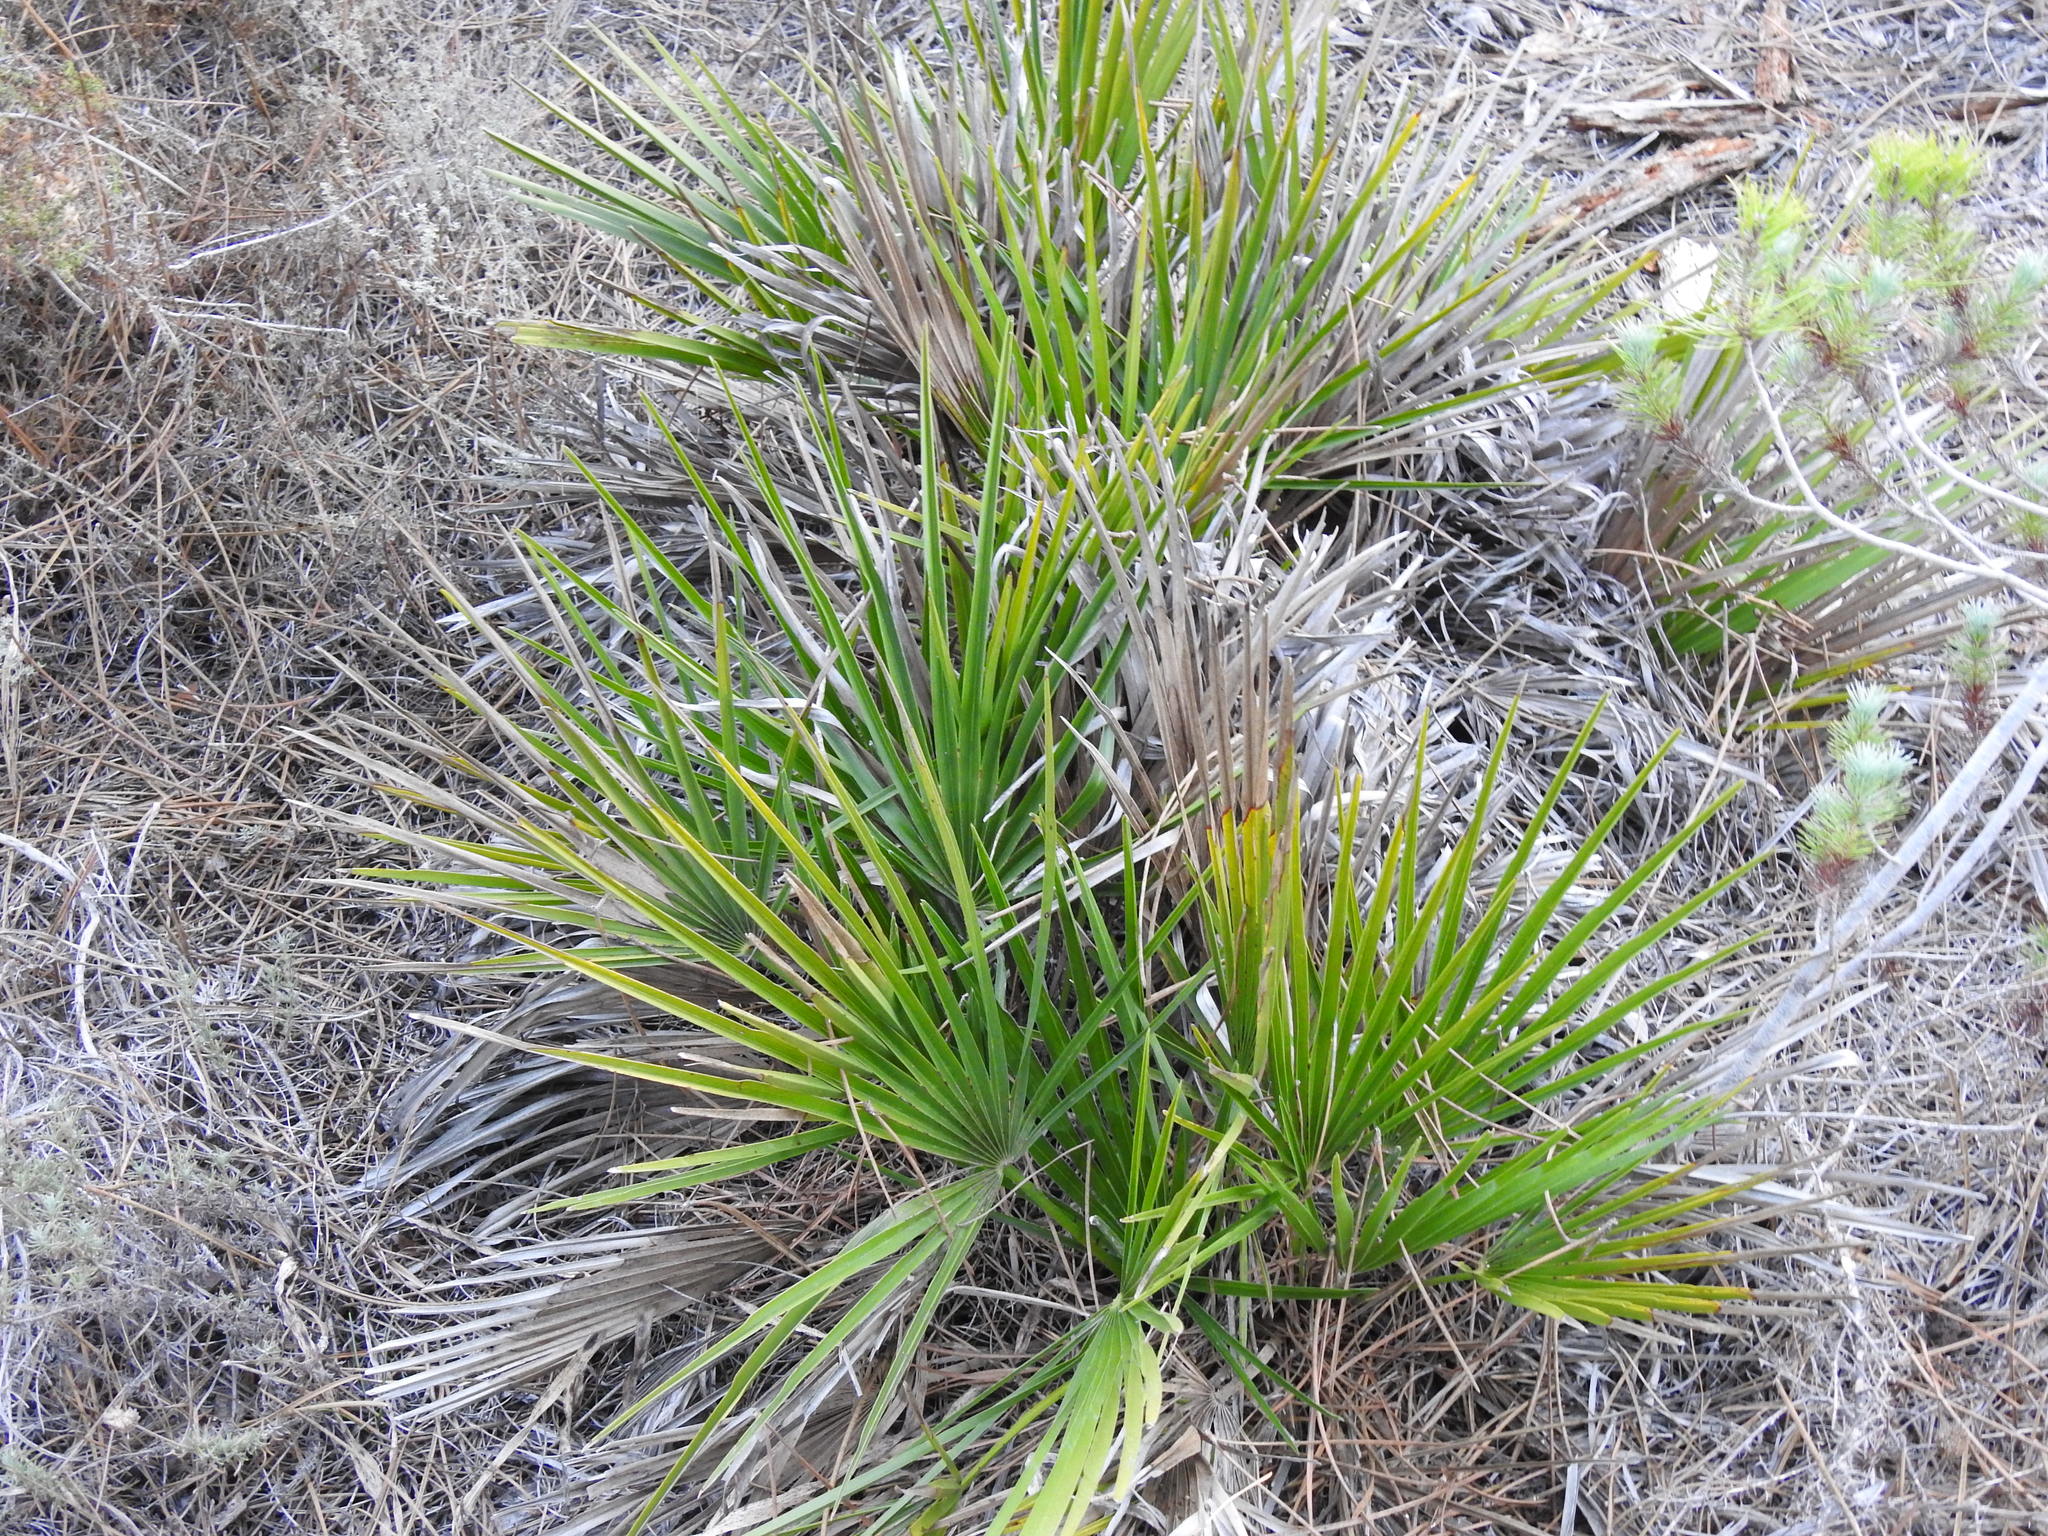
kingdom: Plantae
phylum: Tracheophyta
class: Liliopsida
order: Arecales
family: Arecaceae
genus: Chamaerops
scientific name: Chamaerops humilis
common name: Dwarf fan palm
